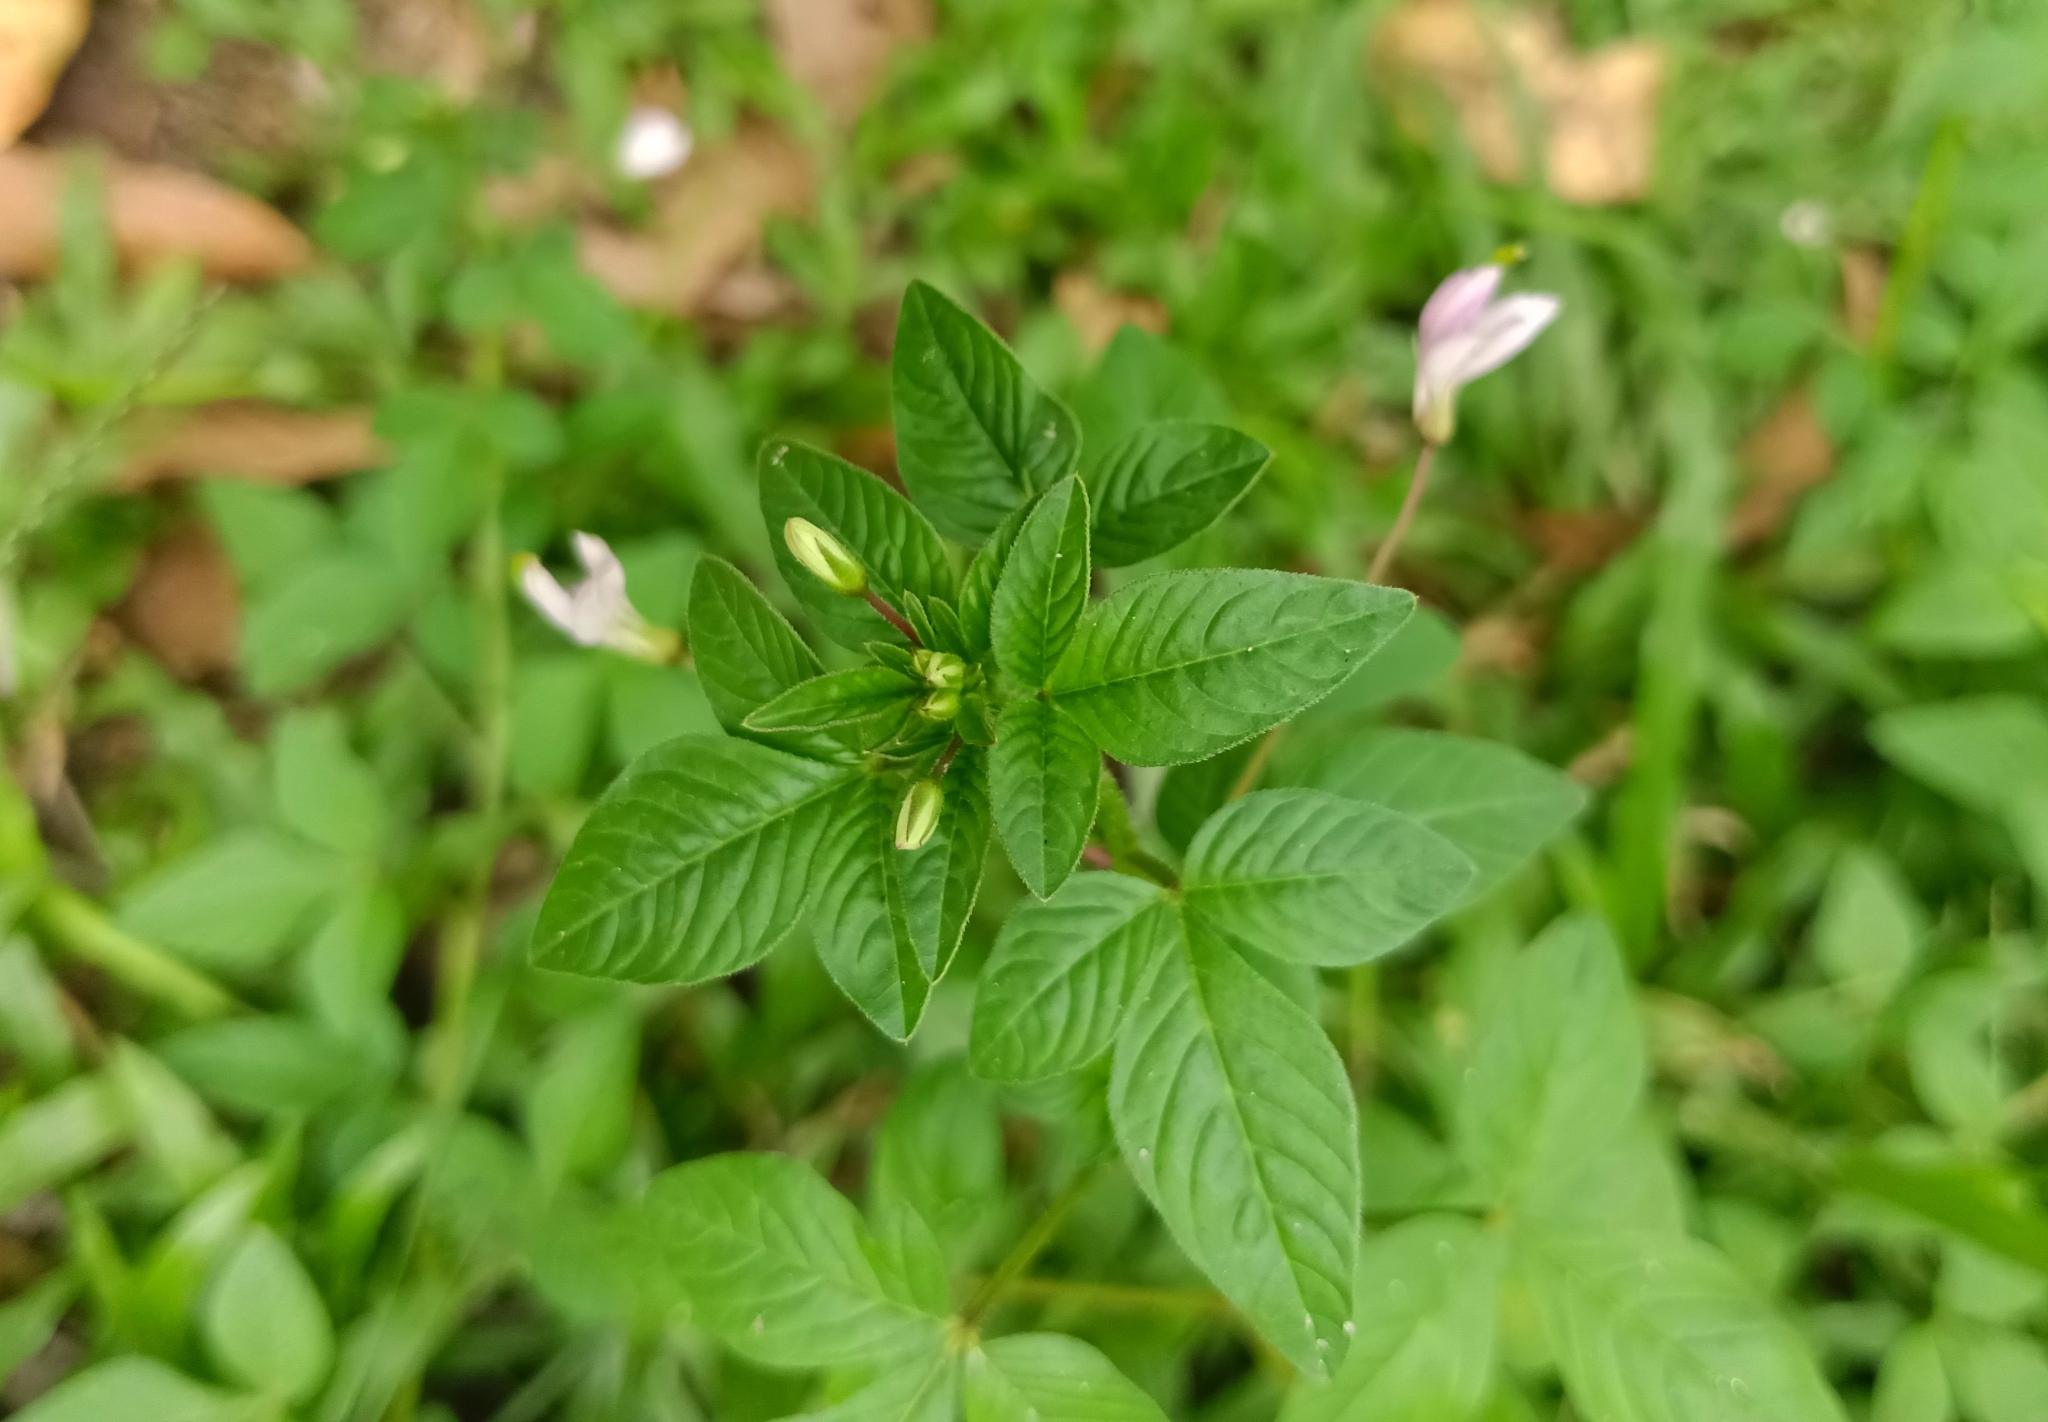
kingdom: Plantae
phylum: Tracheophyta
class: Magnoliopsida
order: Brassicales
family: Cleomaceae
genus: Sieruela
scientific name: Sieruela rutidosperma
